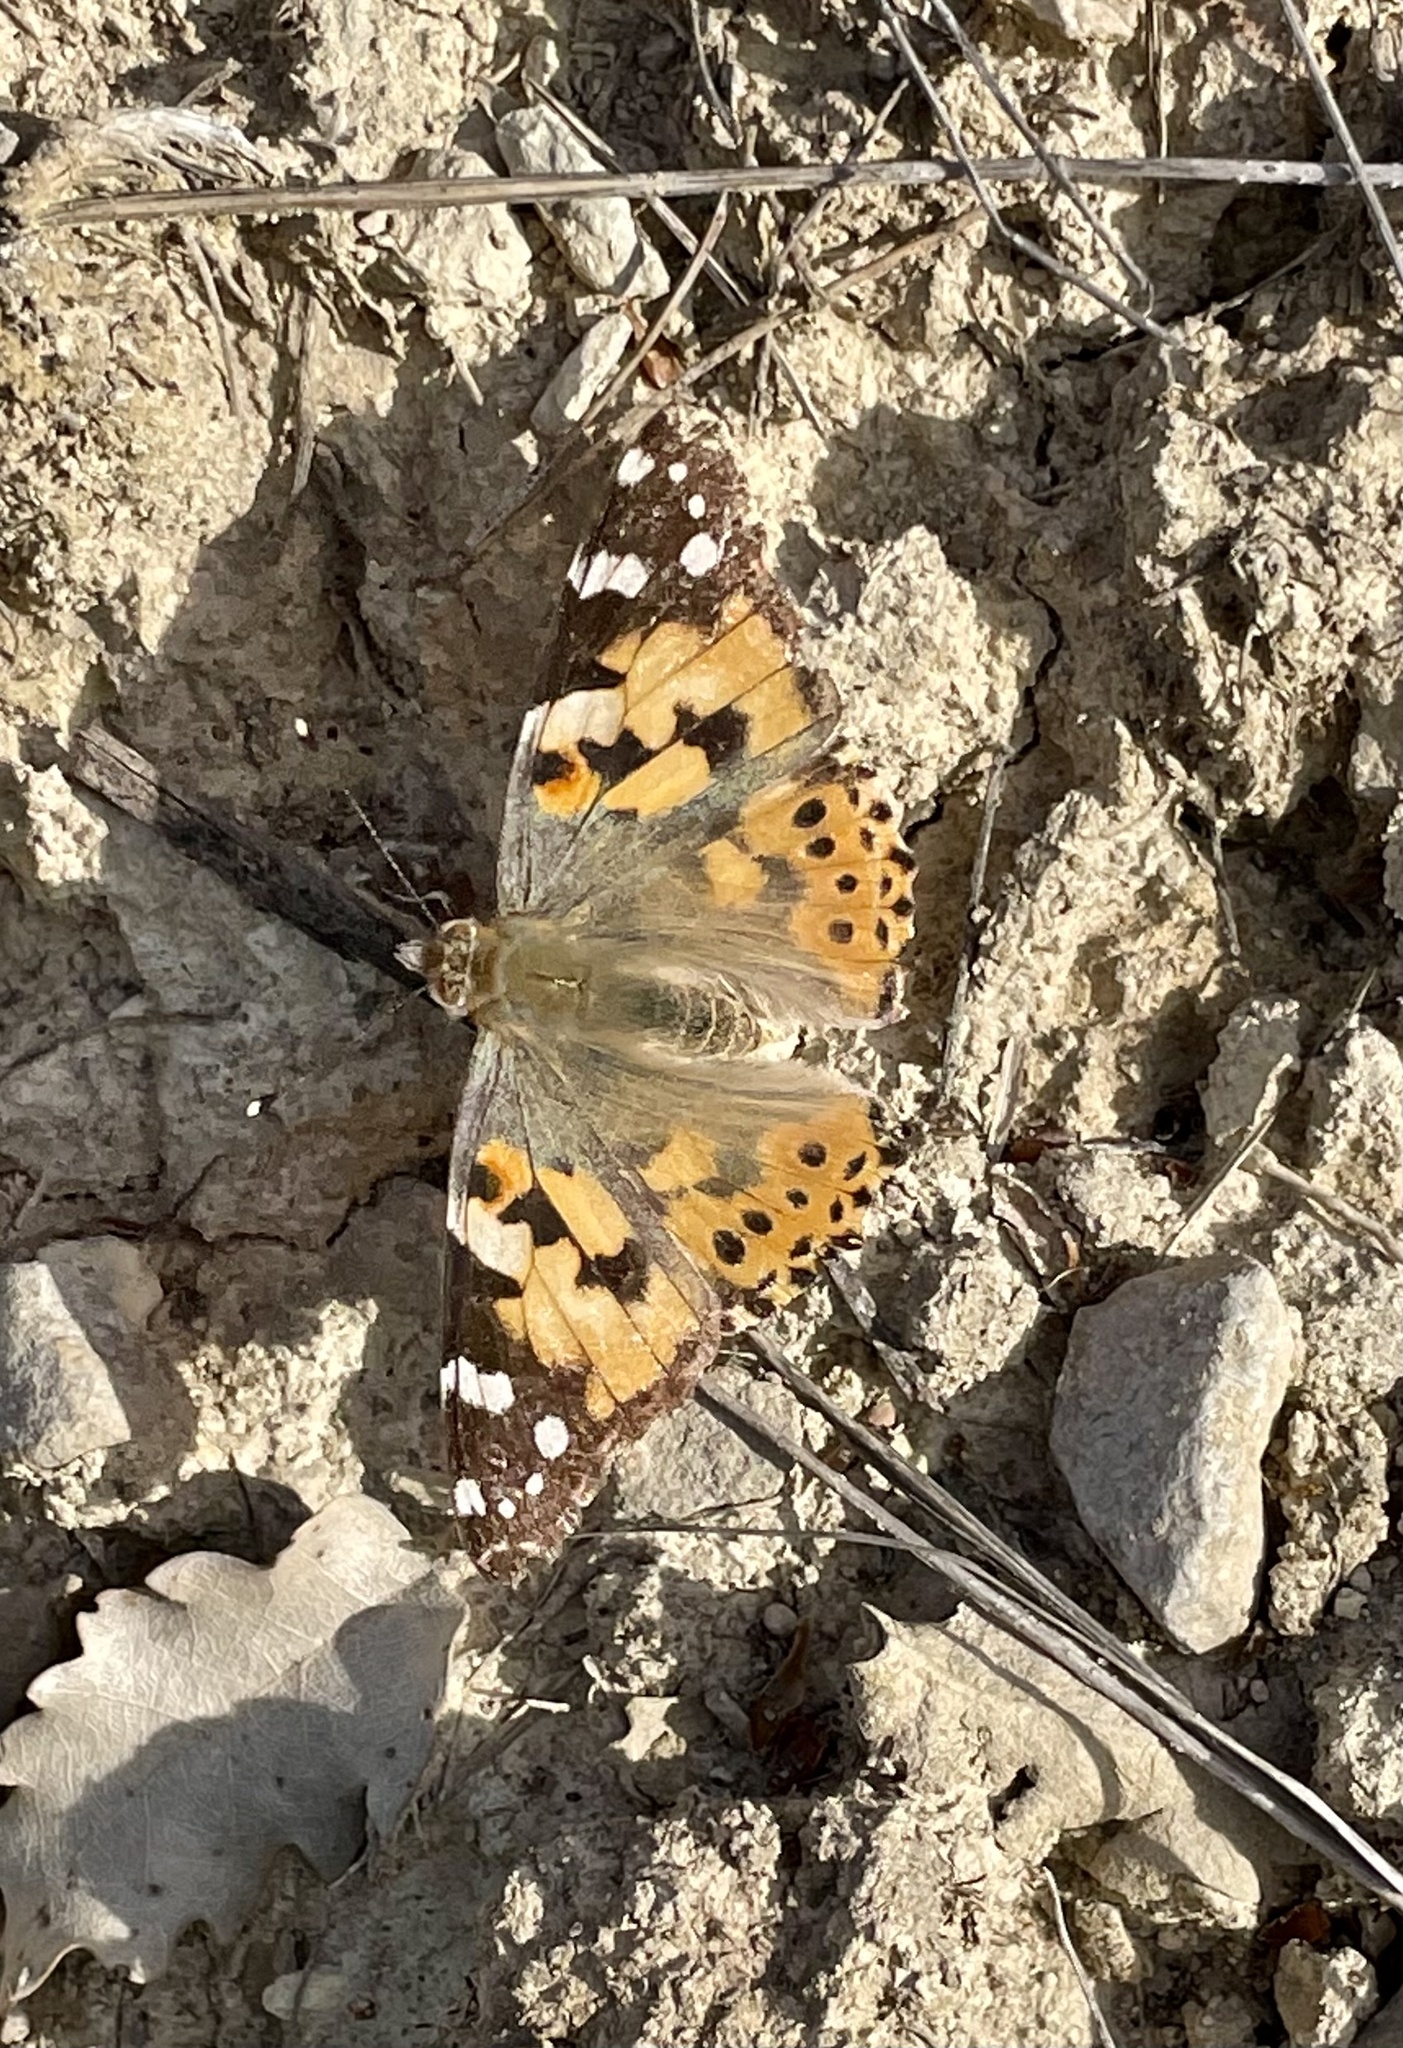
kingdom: Animalia
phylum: Arthropoda
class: Insecta
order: Lepidoptera
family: Nymphalidae
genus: Vanessa
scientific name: Vanessa cardui
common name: Painted lady
